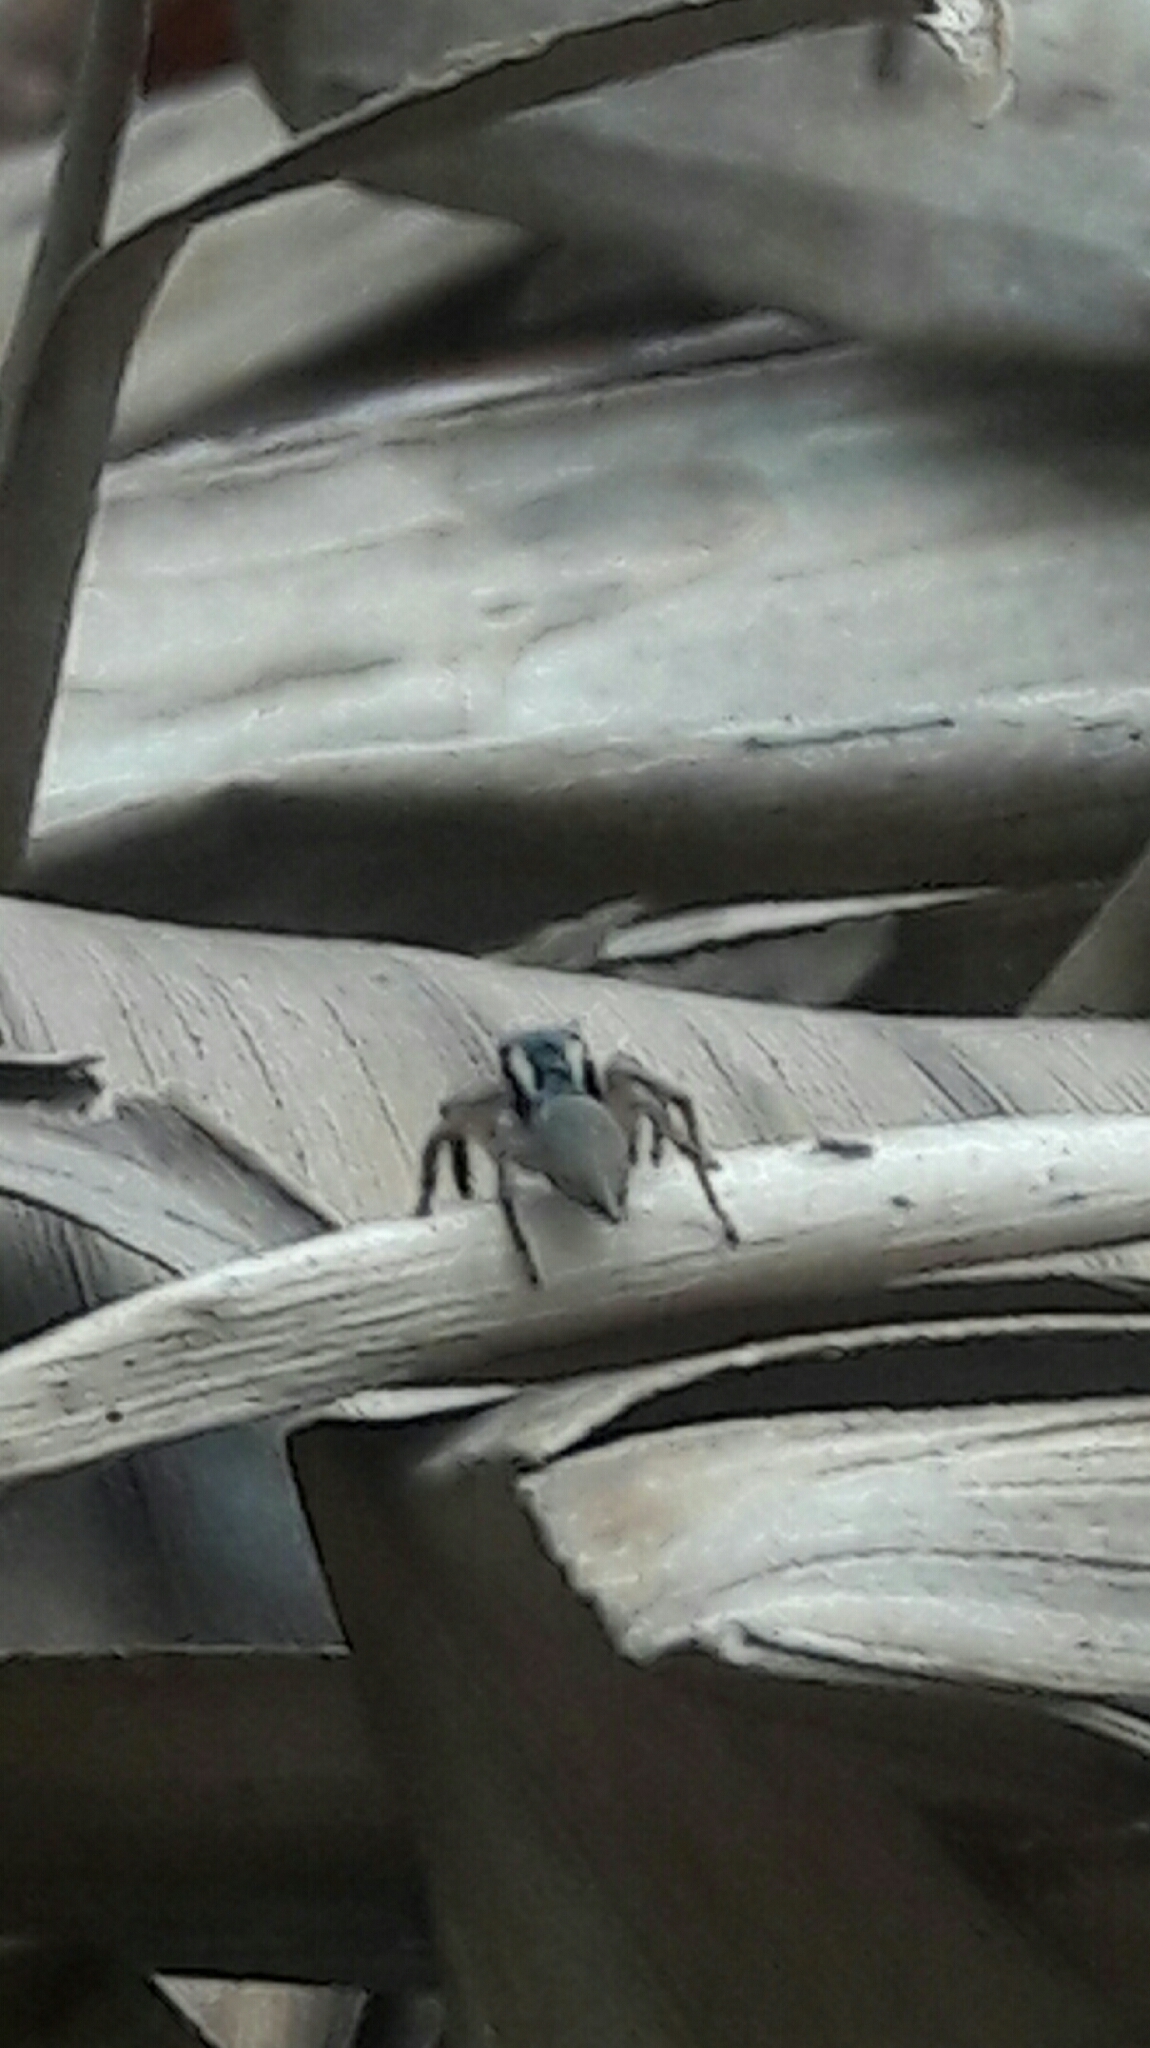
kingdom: Animalia
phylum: Arthropoda
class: Arachnida
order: Araneae
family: Salticidae
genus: Sumampattus
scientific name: Sumampattus quinqueradiatus
